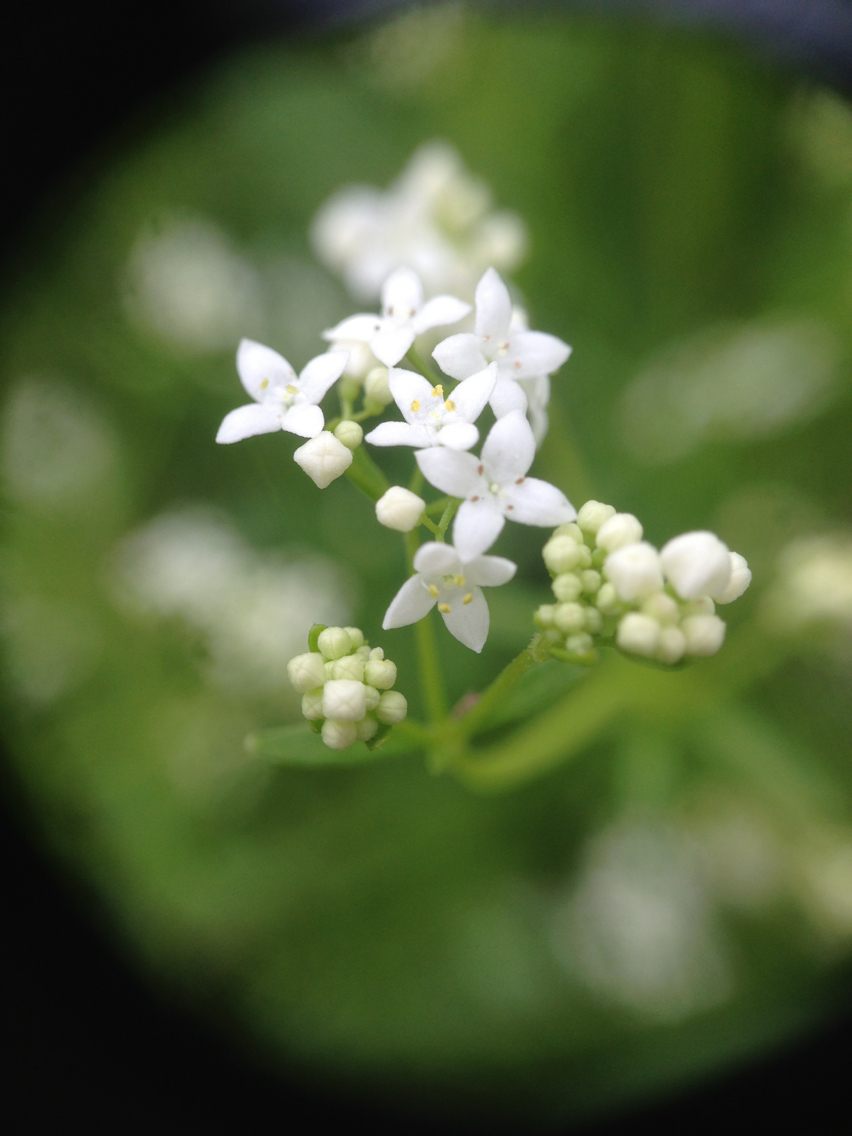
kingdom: Plantae
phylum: Tracheophyta
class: Magnoliopsida
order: Gentianales
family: Rubiaceae
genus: Galium
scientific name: Galium palustre
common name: Common marsh-bedstraw
